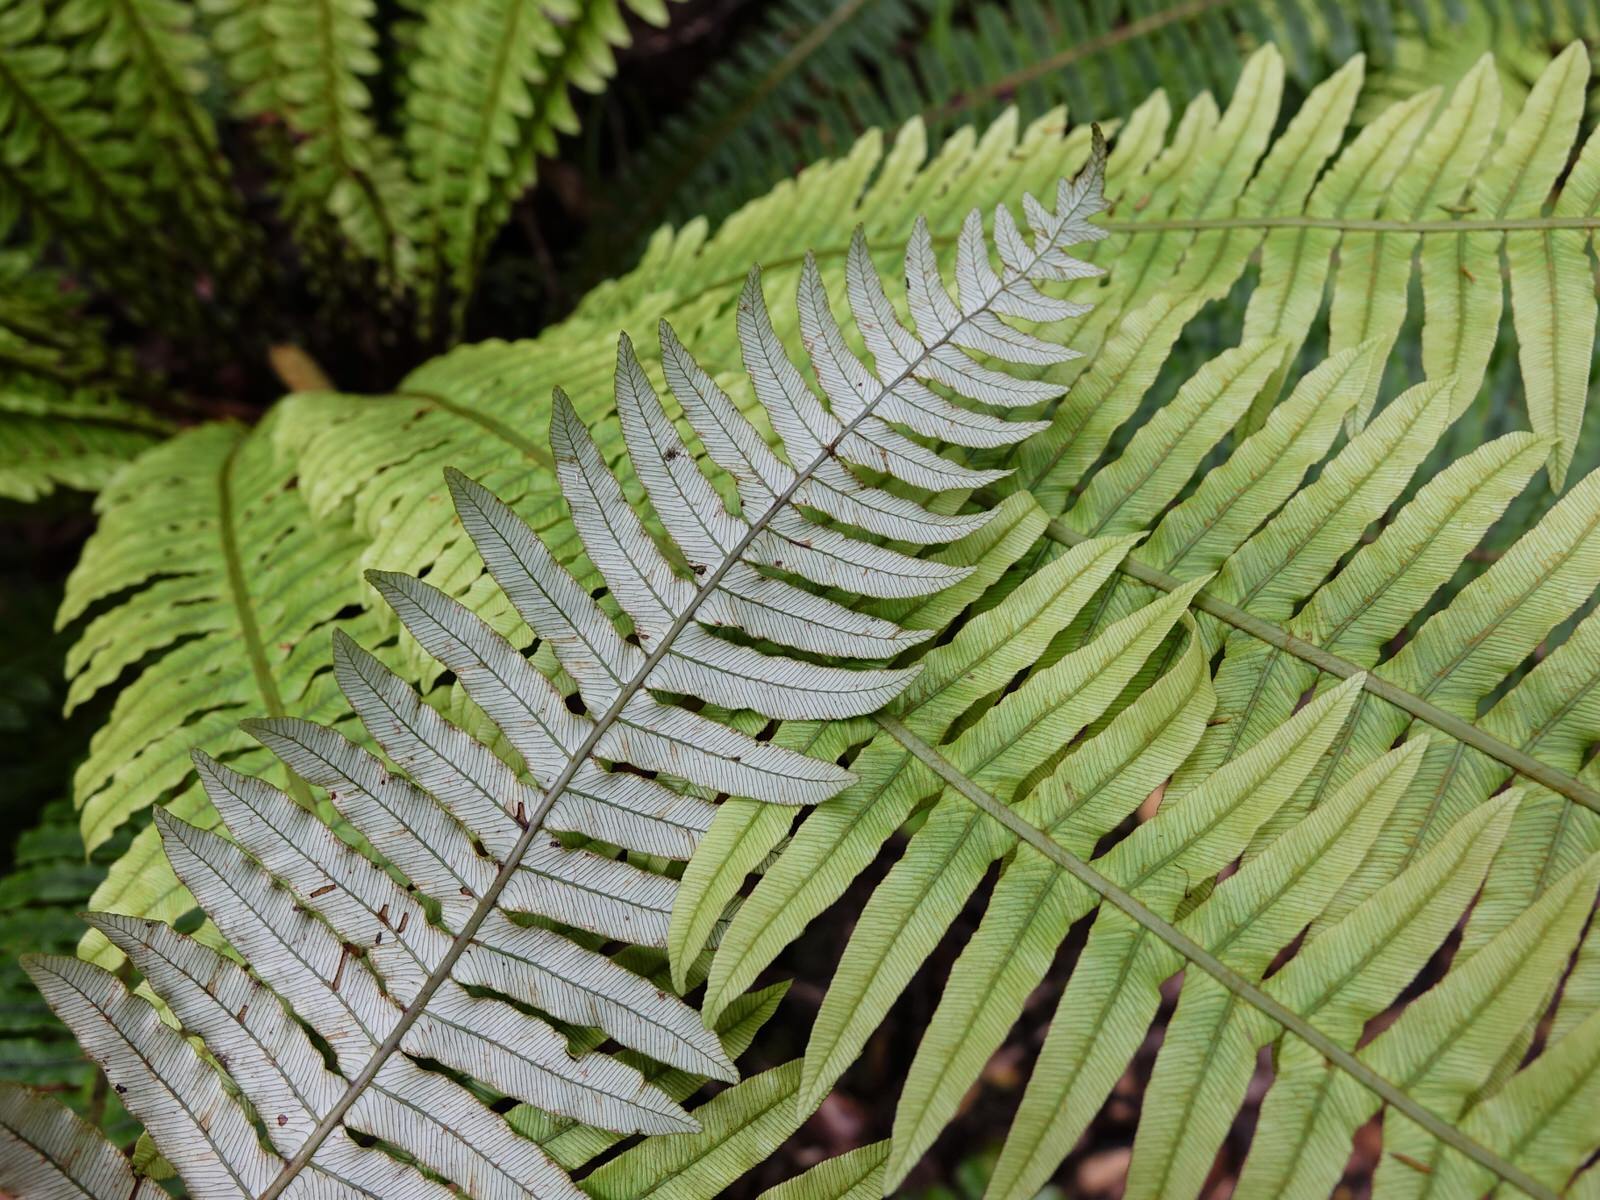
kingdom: Plantae
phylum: Tracheophyta
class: Polypodiopsida
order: Polypodiales
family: Blechnaceae
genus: Lomaria
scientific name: Lomaria discolor
